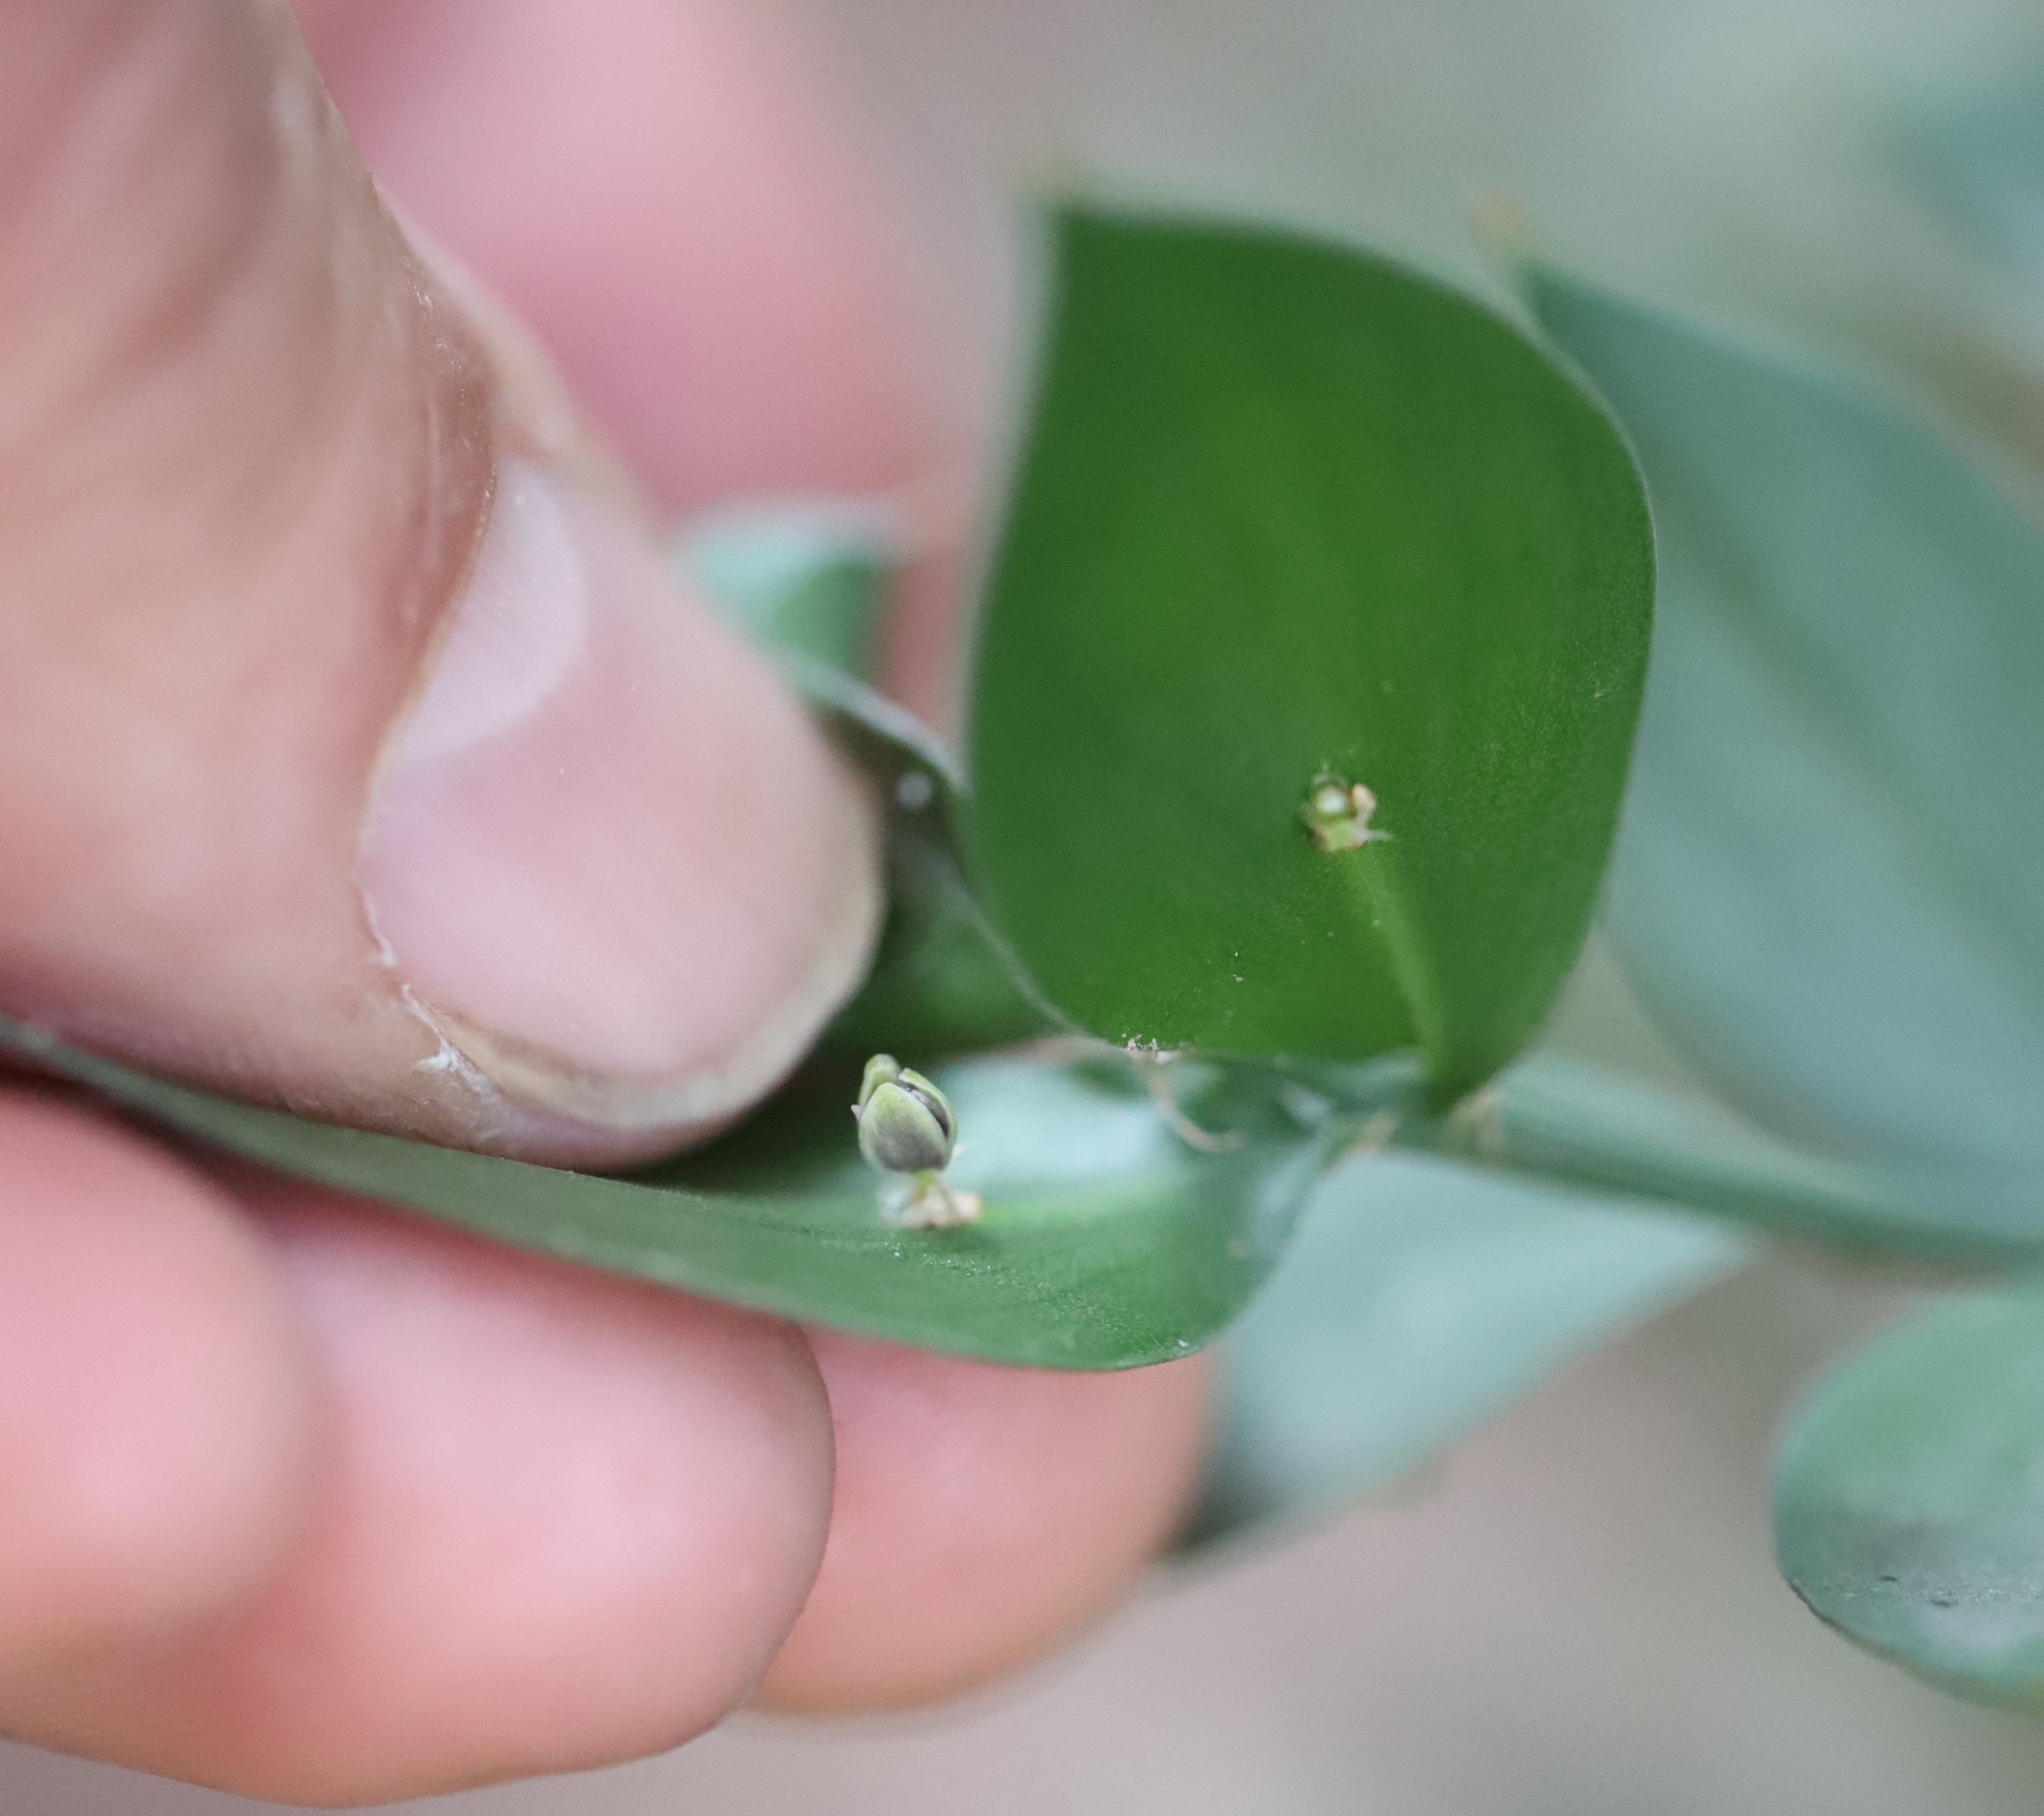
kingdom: Plantae
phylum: Tracheophyta
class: Liliopsida
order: Asparagales
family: Asparagaceae
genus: Ruscus
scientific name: Ruscus aculeatus
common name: Butcher's-broom
